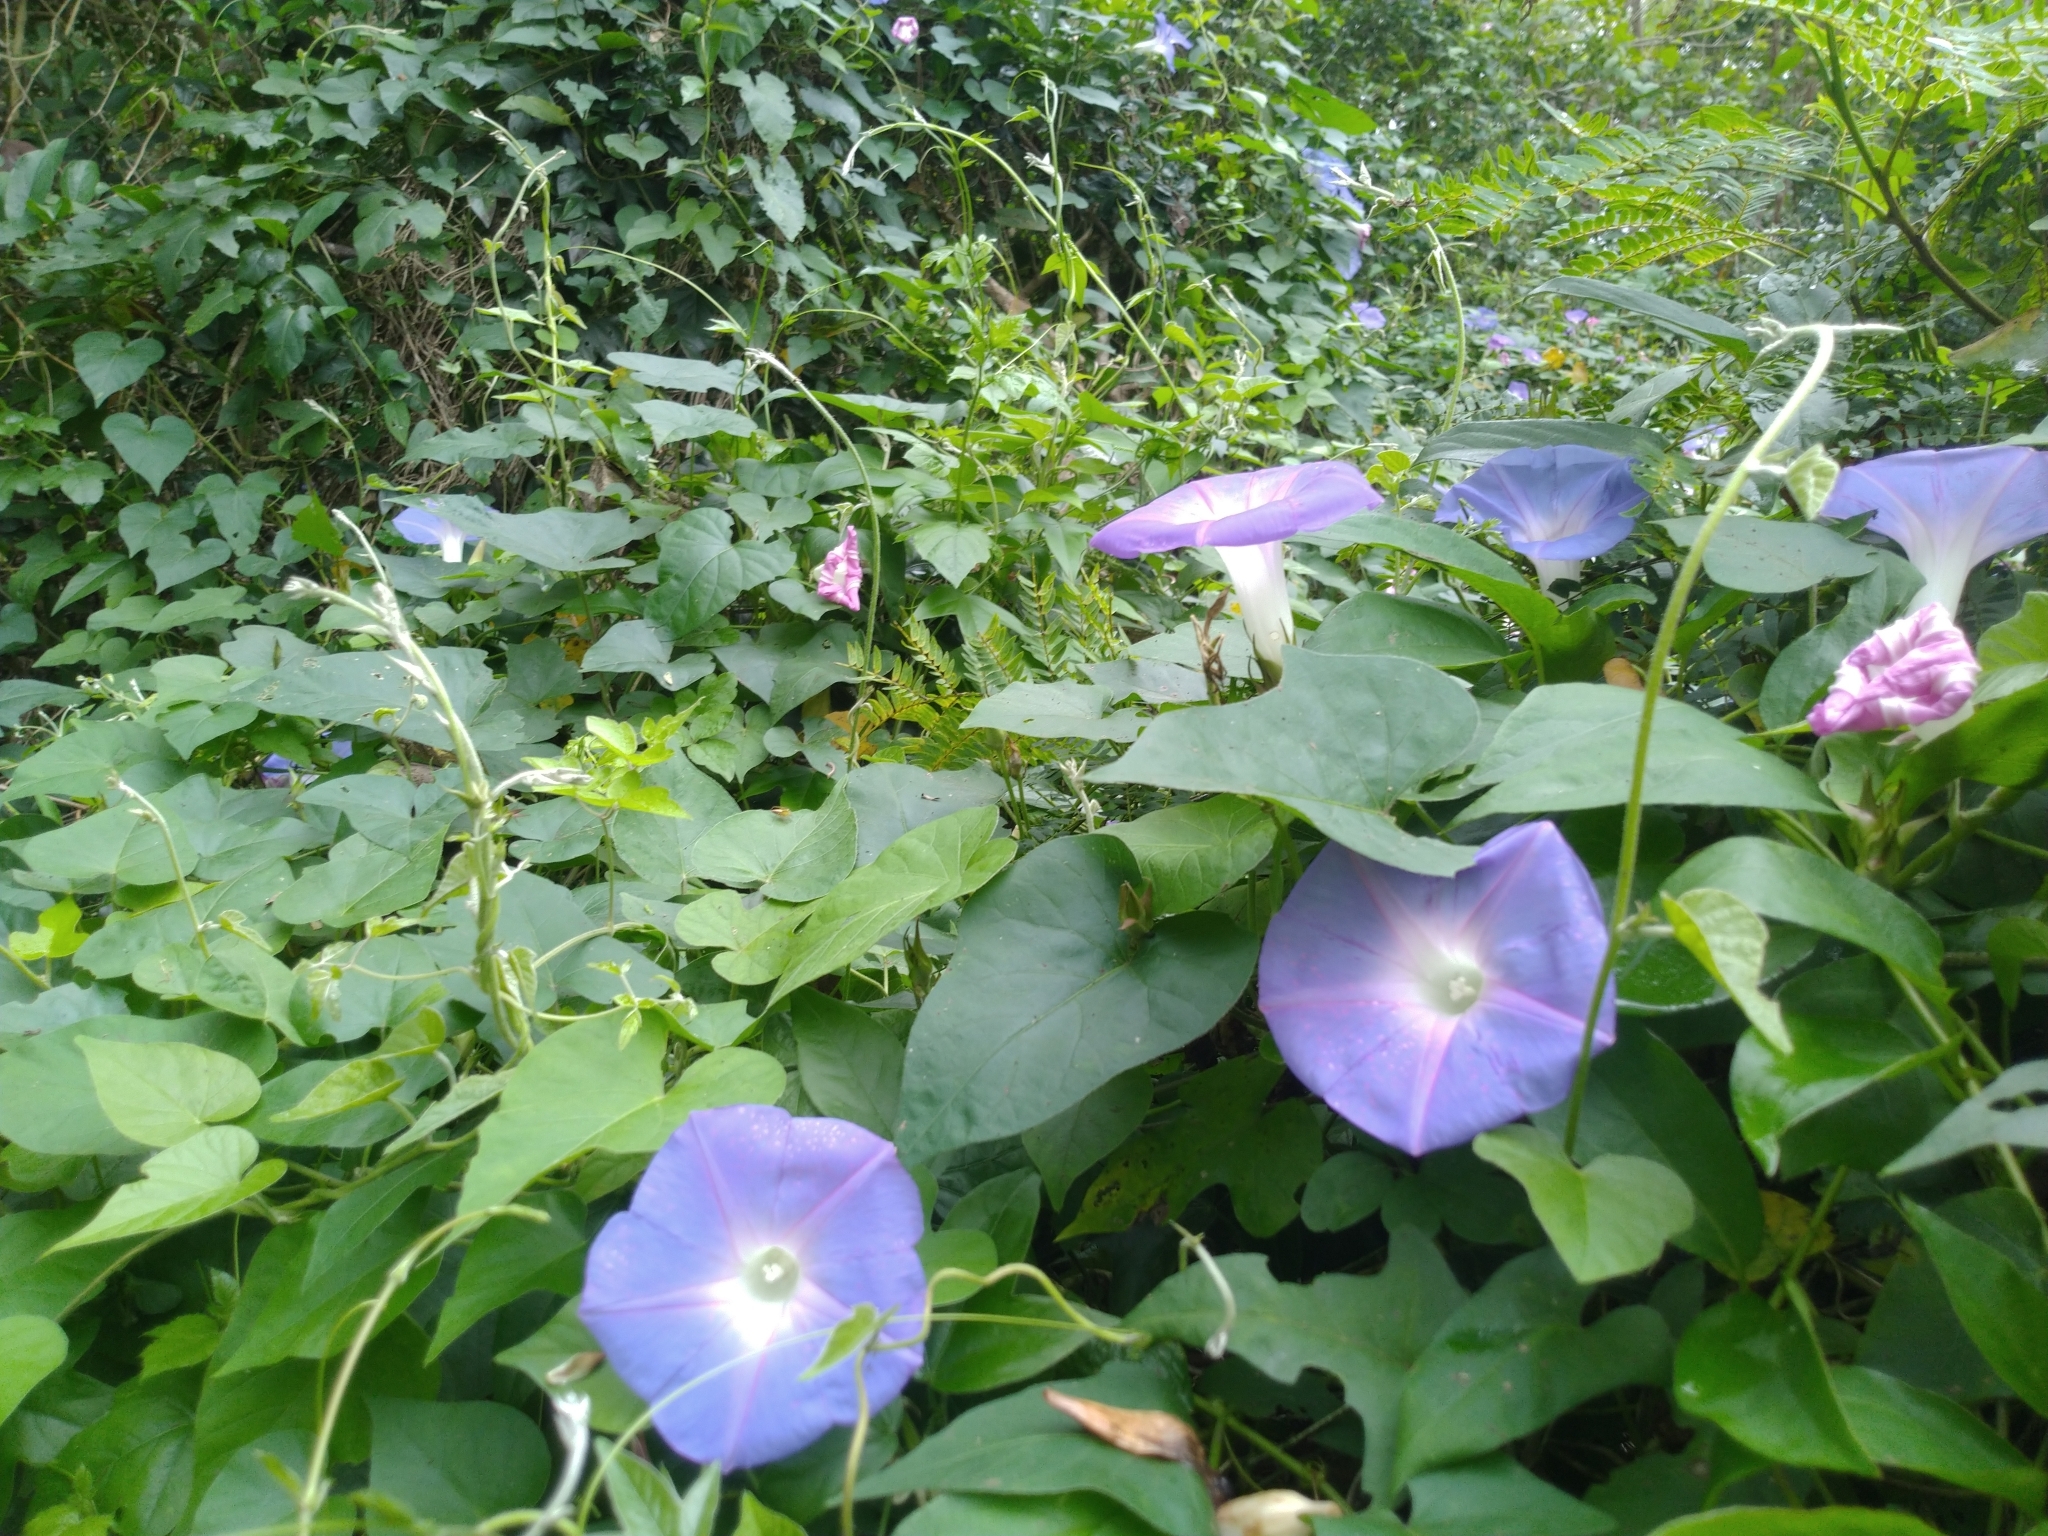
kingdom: Plantae
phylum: Tracheophyta
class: Magnoliopsida
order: Solanales
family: Convolvulaceae
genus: Ipomoea
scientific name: Ipomoea indica
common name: Blue dawnflower
